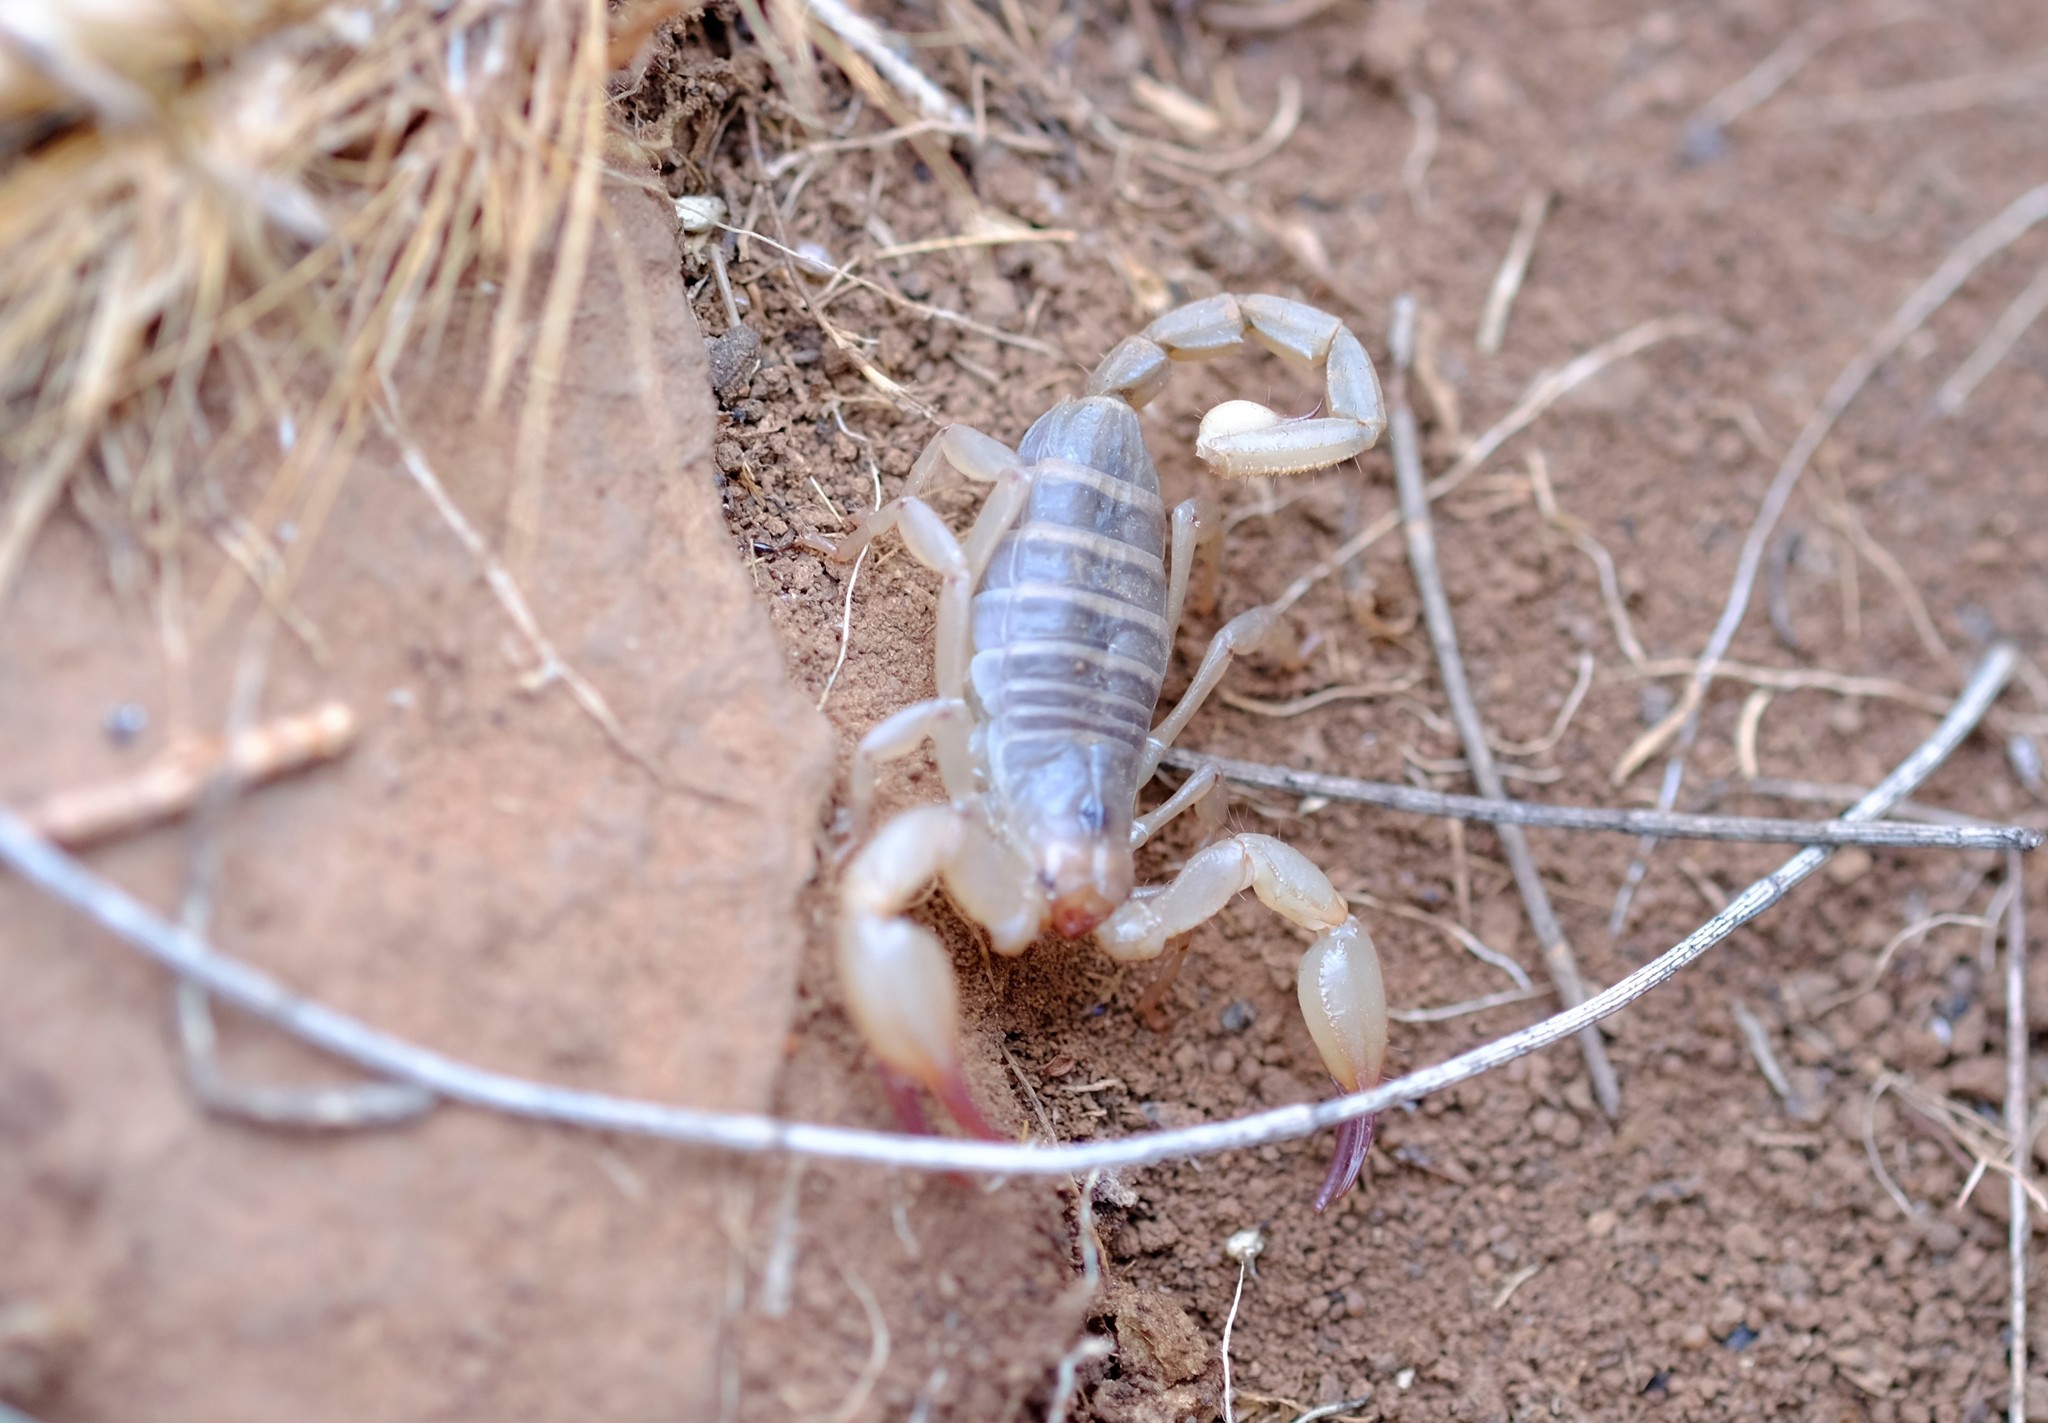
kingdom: Animalia
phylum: Arthropoda
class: Arachnida
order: Scorpiones
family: Scorpionidae
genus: Urodacus
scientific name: Urodacus elongatus
